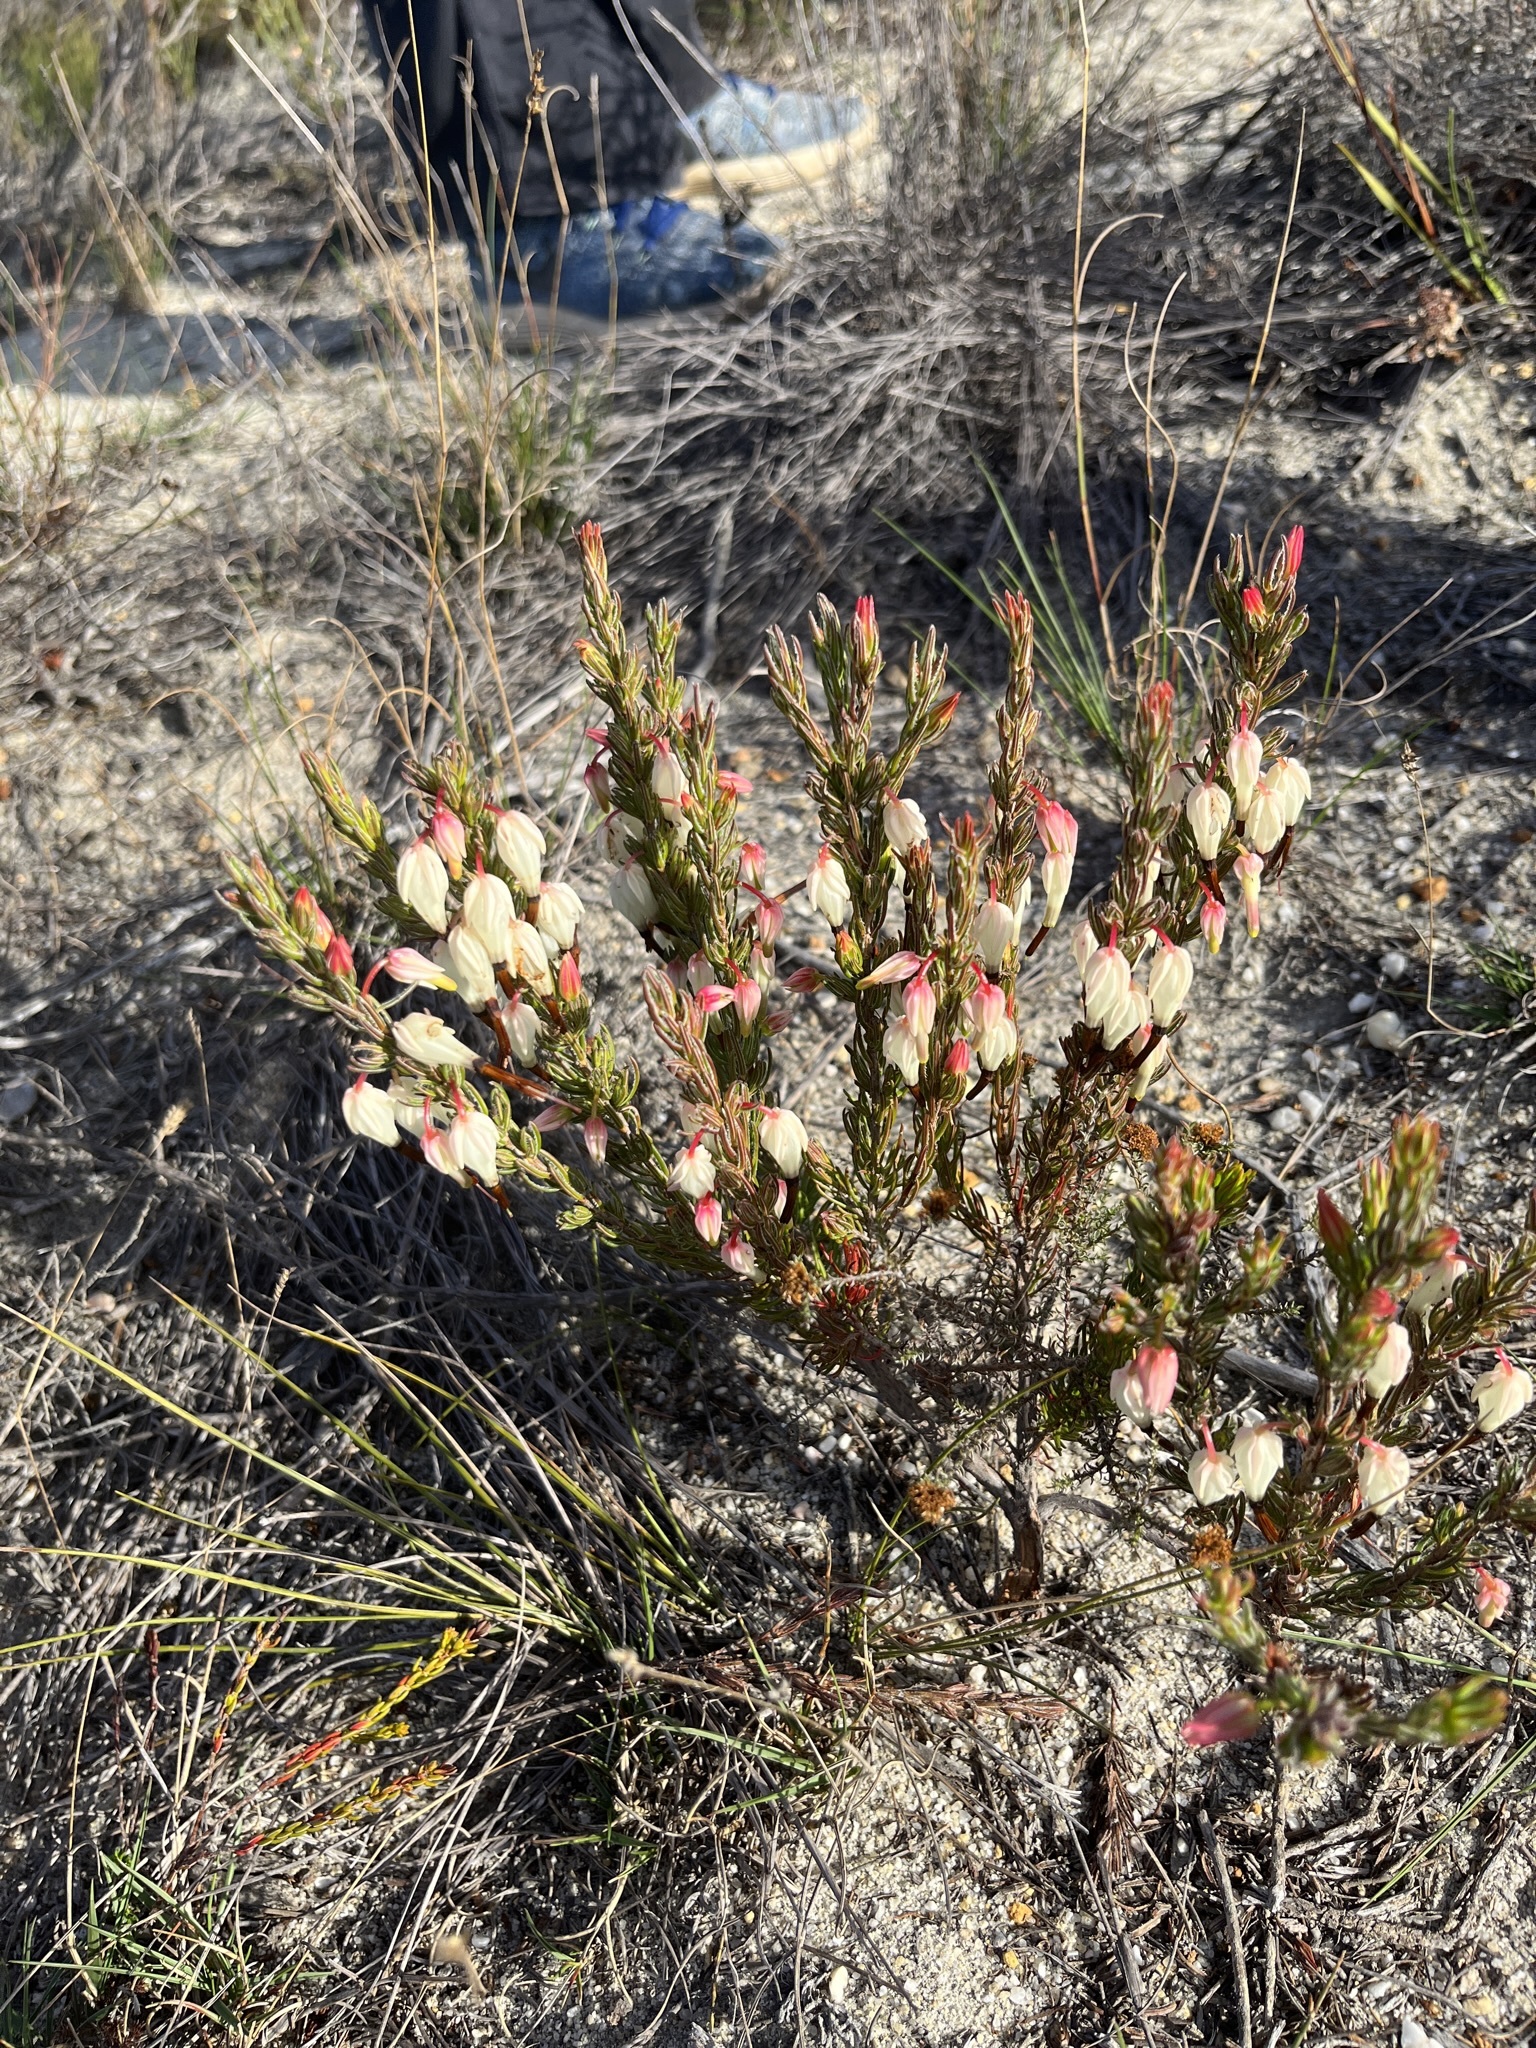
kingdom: Plantae
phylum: Tracheophyta
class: Magnoliopsida
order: Ericales
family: Ericaceae
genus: Erica
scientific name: Erica plukenetii
